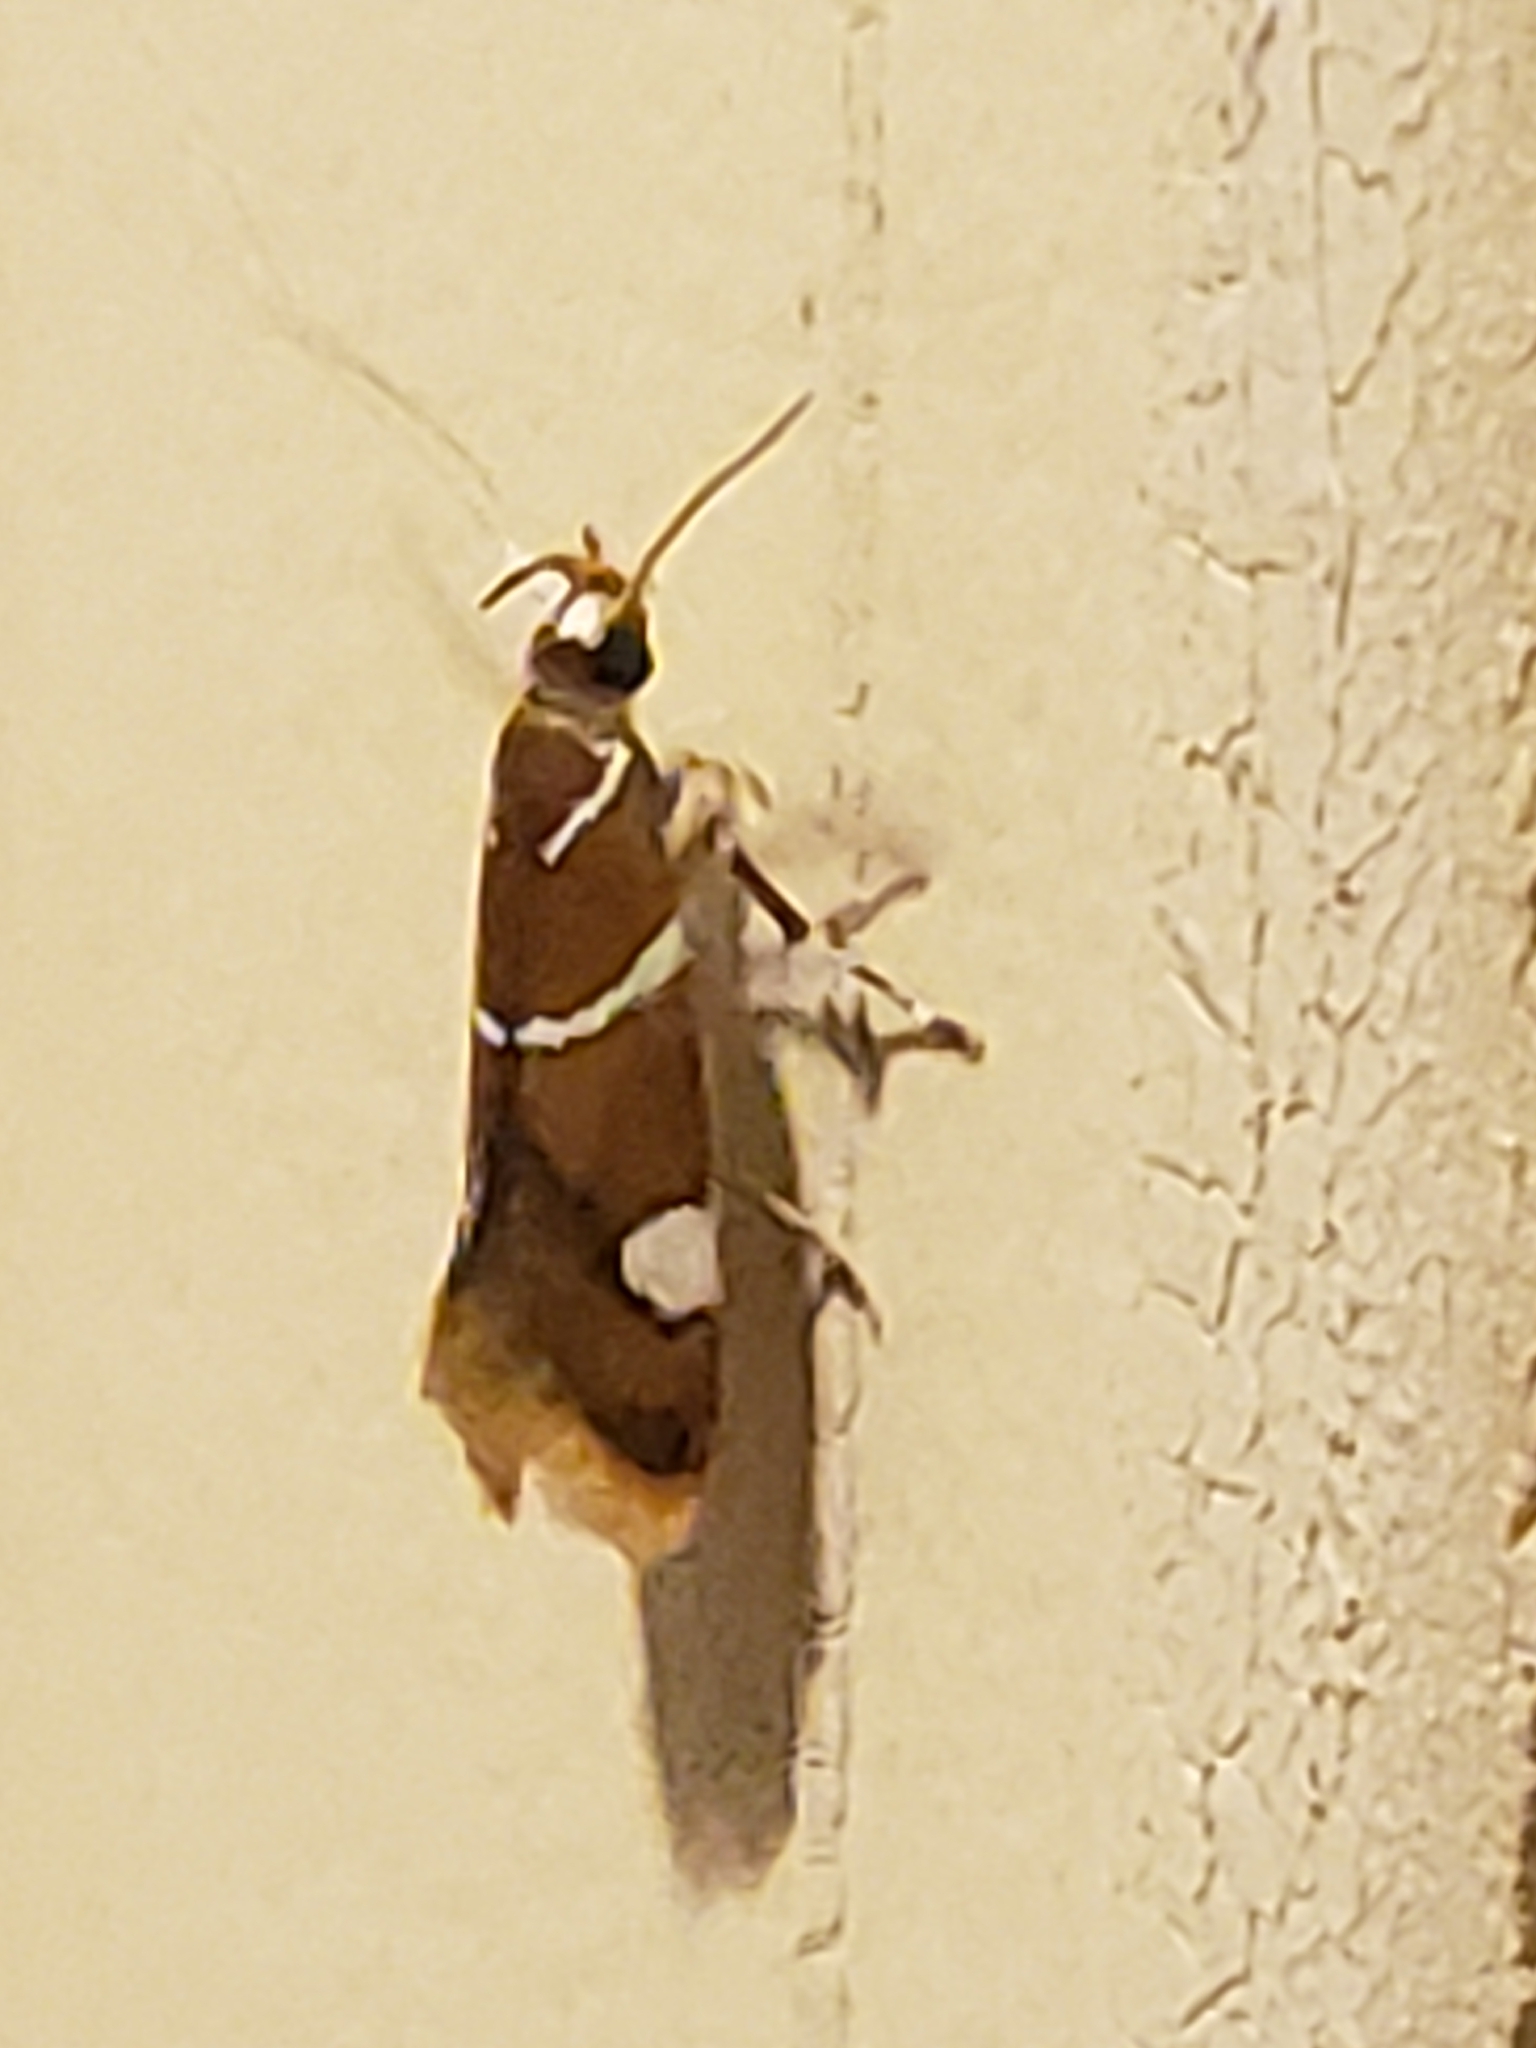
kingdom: Animalia
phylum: Arthropoda
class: Insecta
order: Lepidoptera
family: Oecophoridae
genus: Promalactis
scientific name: Promalactis suzukiella
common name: Moth
